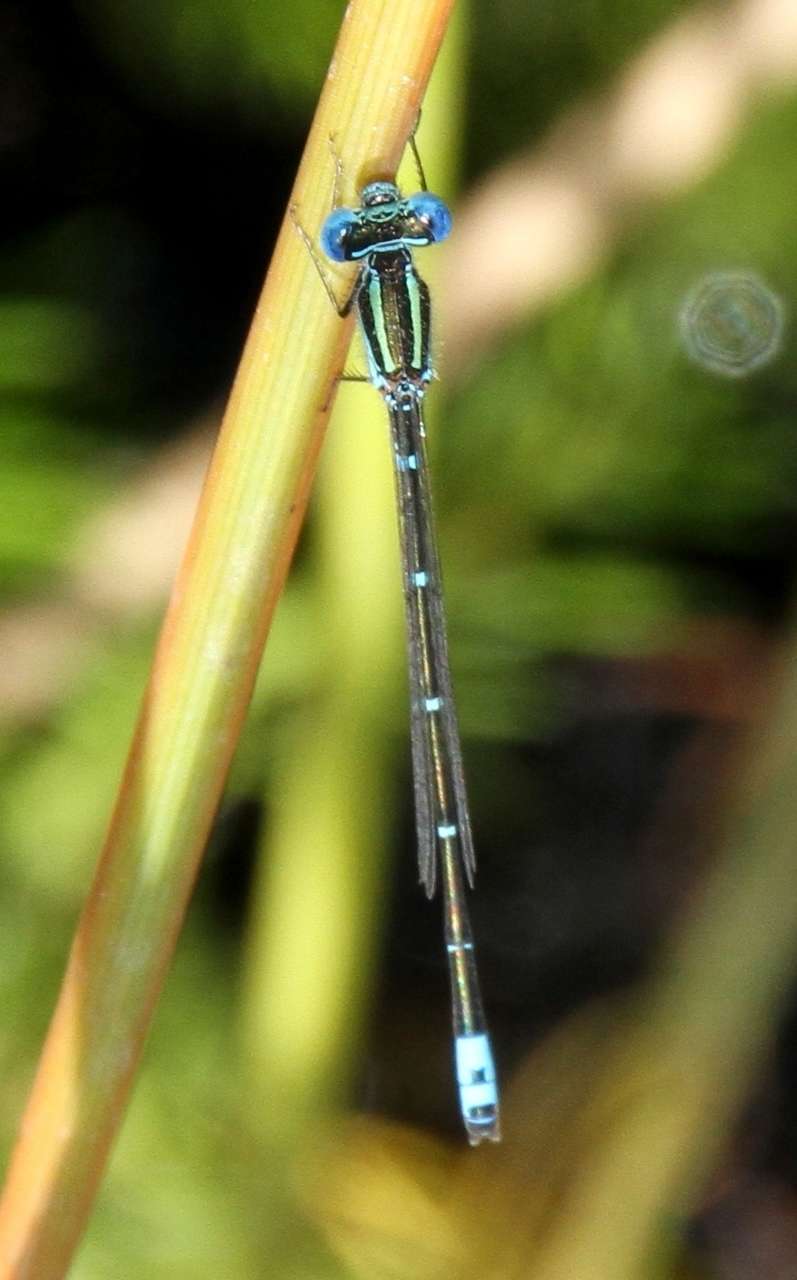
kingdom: Animalia
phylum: Arthropoda
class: Insecta
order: Odonata
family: Coenagrionidae
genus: Austroagrion
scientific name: Austroagrion watsoni
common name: Eastern billabongfly
